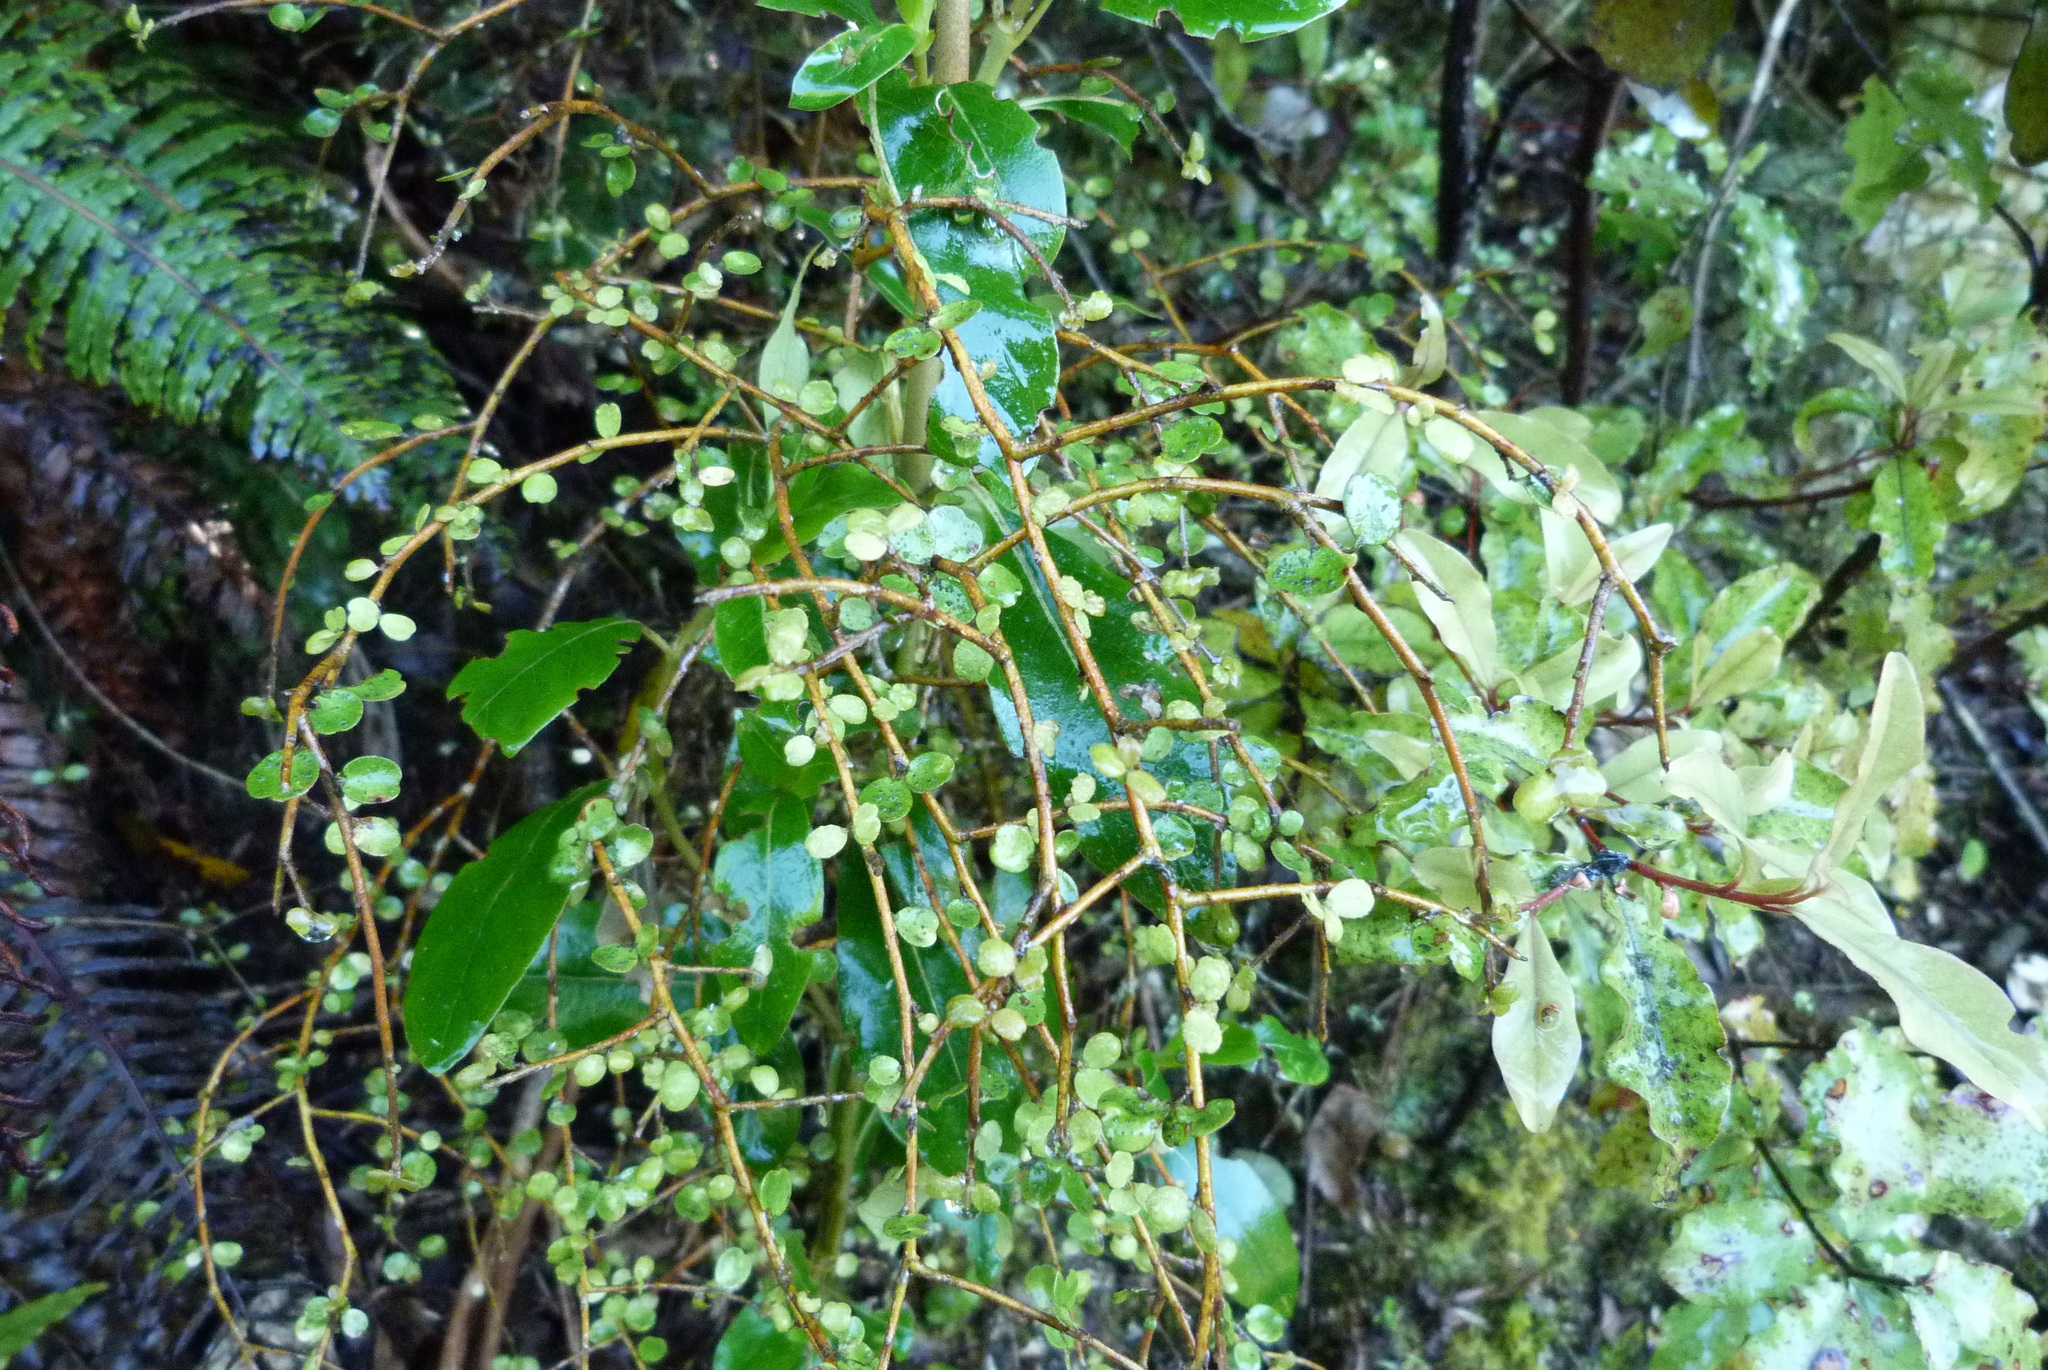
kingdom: Plantae
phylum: Tracheophyta
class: Magnoliopsida
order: Ericales
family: Primulaceae
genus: Myrsine
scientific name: Myrsine divaricata
